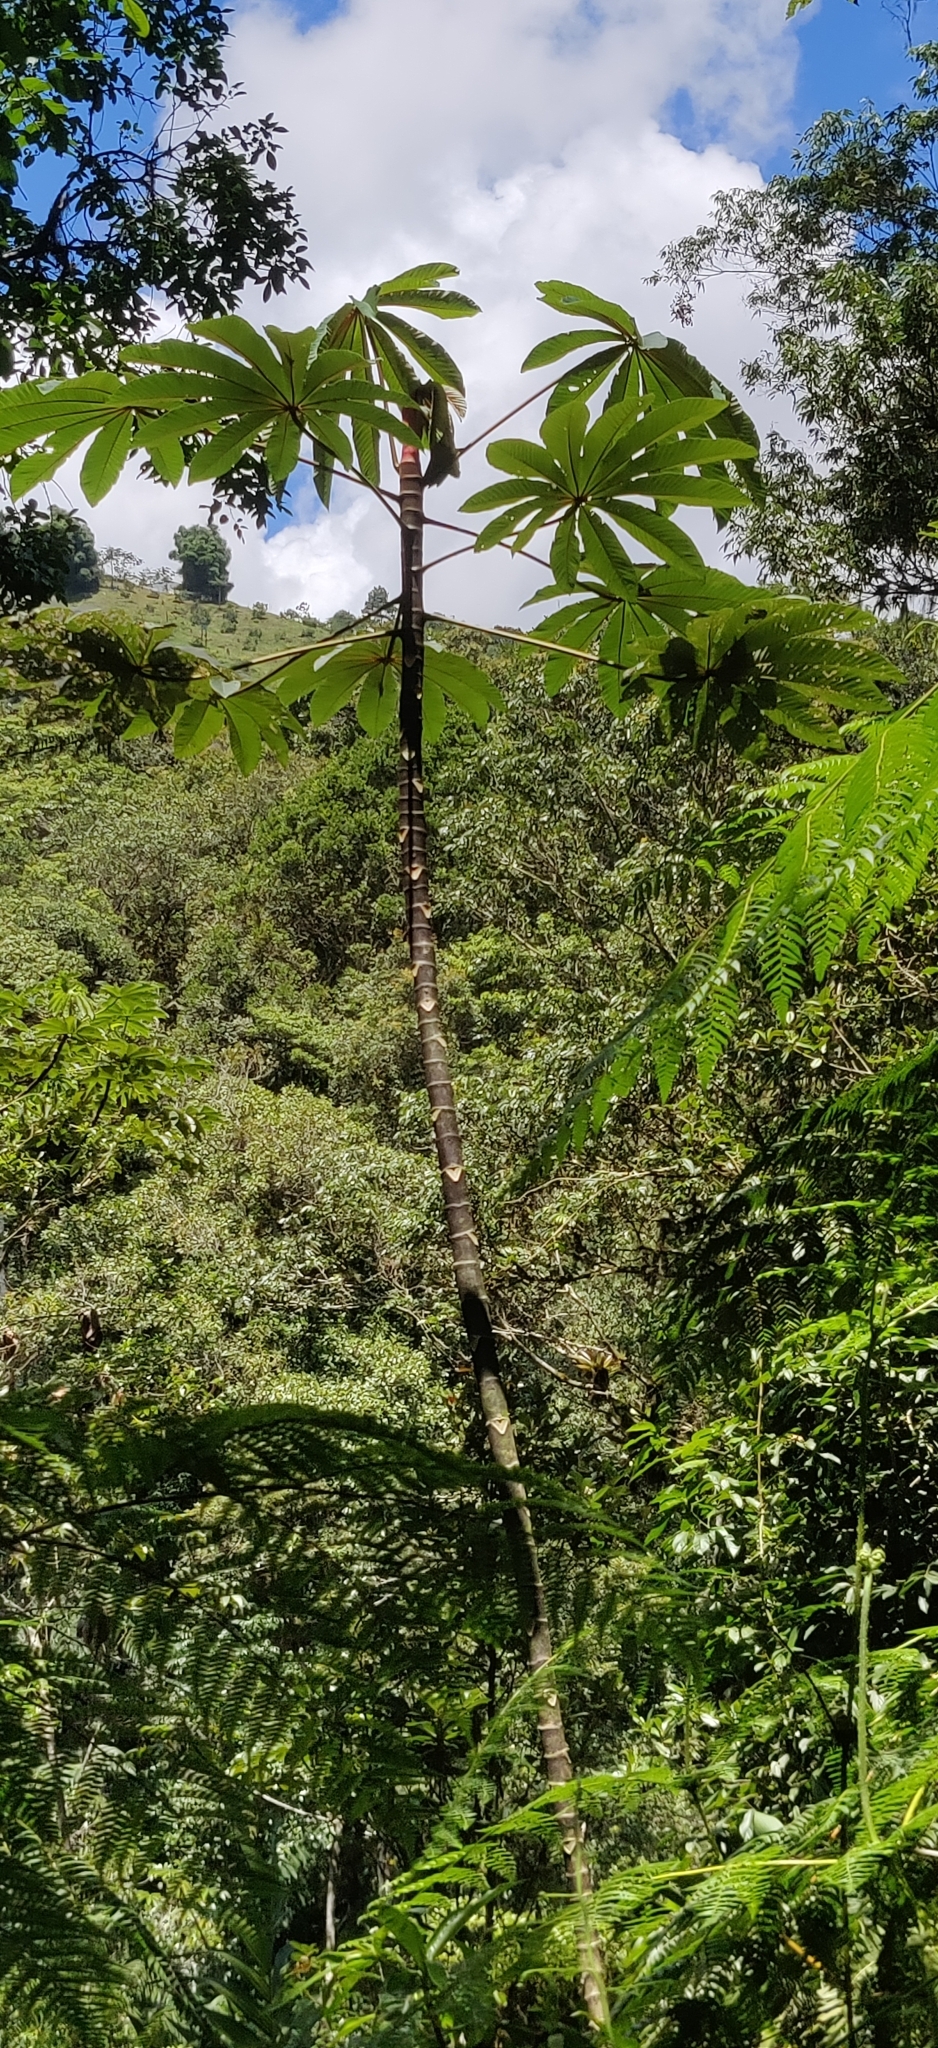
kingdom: Plantae
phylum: Tracheophyta
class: Magnoliopsida
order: Rosales
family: Urticaceae
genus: Cecropia
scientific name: Cecropia obtusifolia
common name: Trumpet tree
